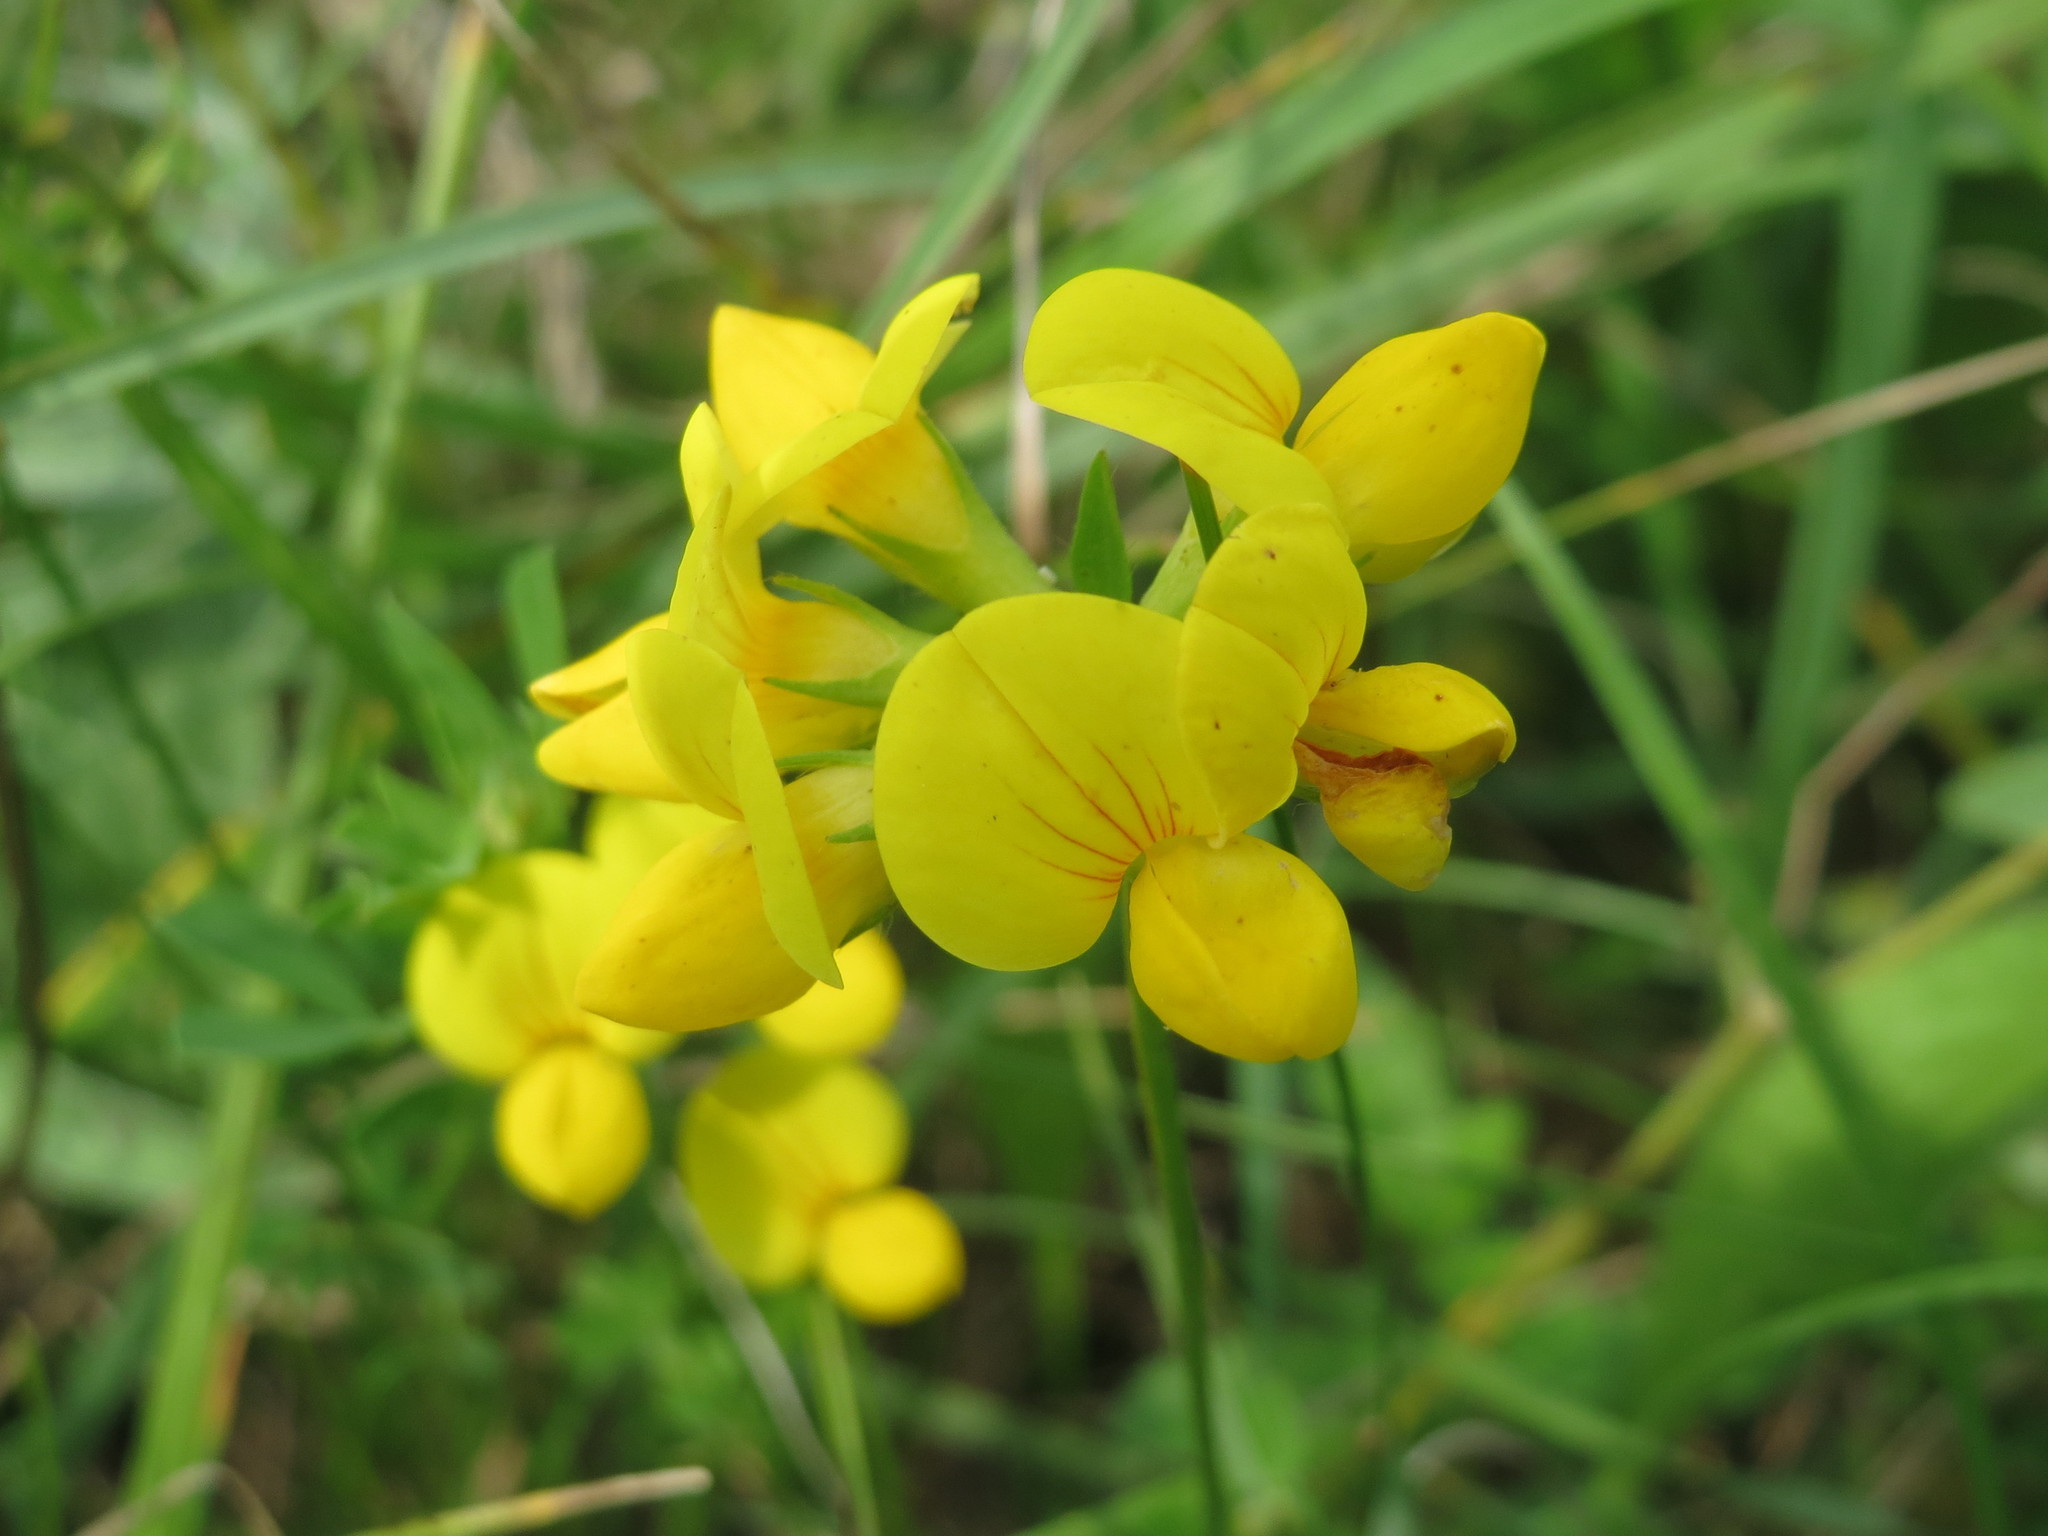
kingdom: Plantae
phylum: Tracheophyta
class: Magnoliopsida
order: Fabales
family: Fabaceae
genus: Lotus
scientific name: Lotus corniculatus
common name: Common bird's-foot-trefoil
